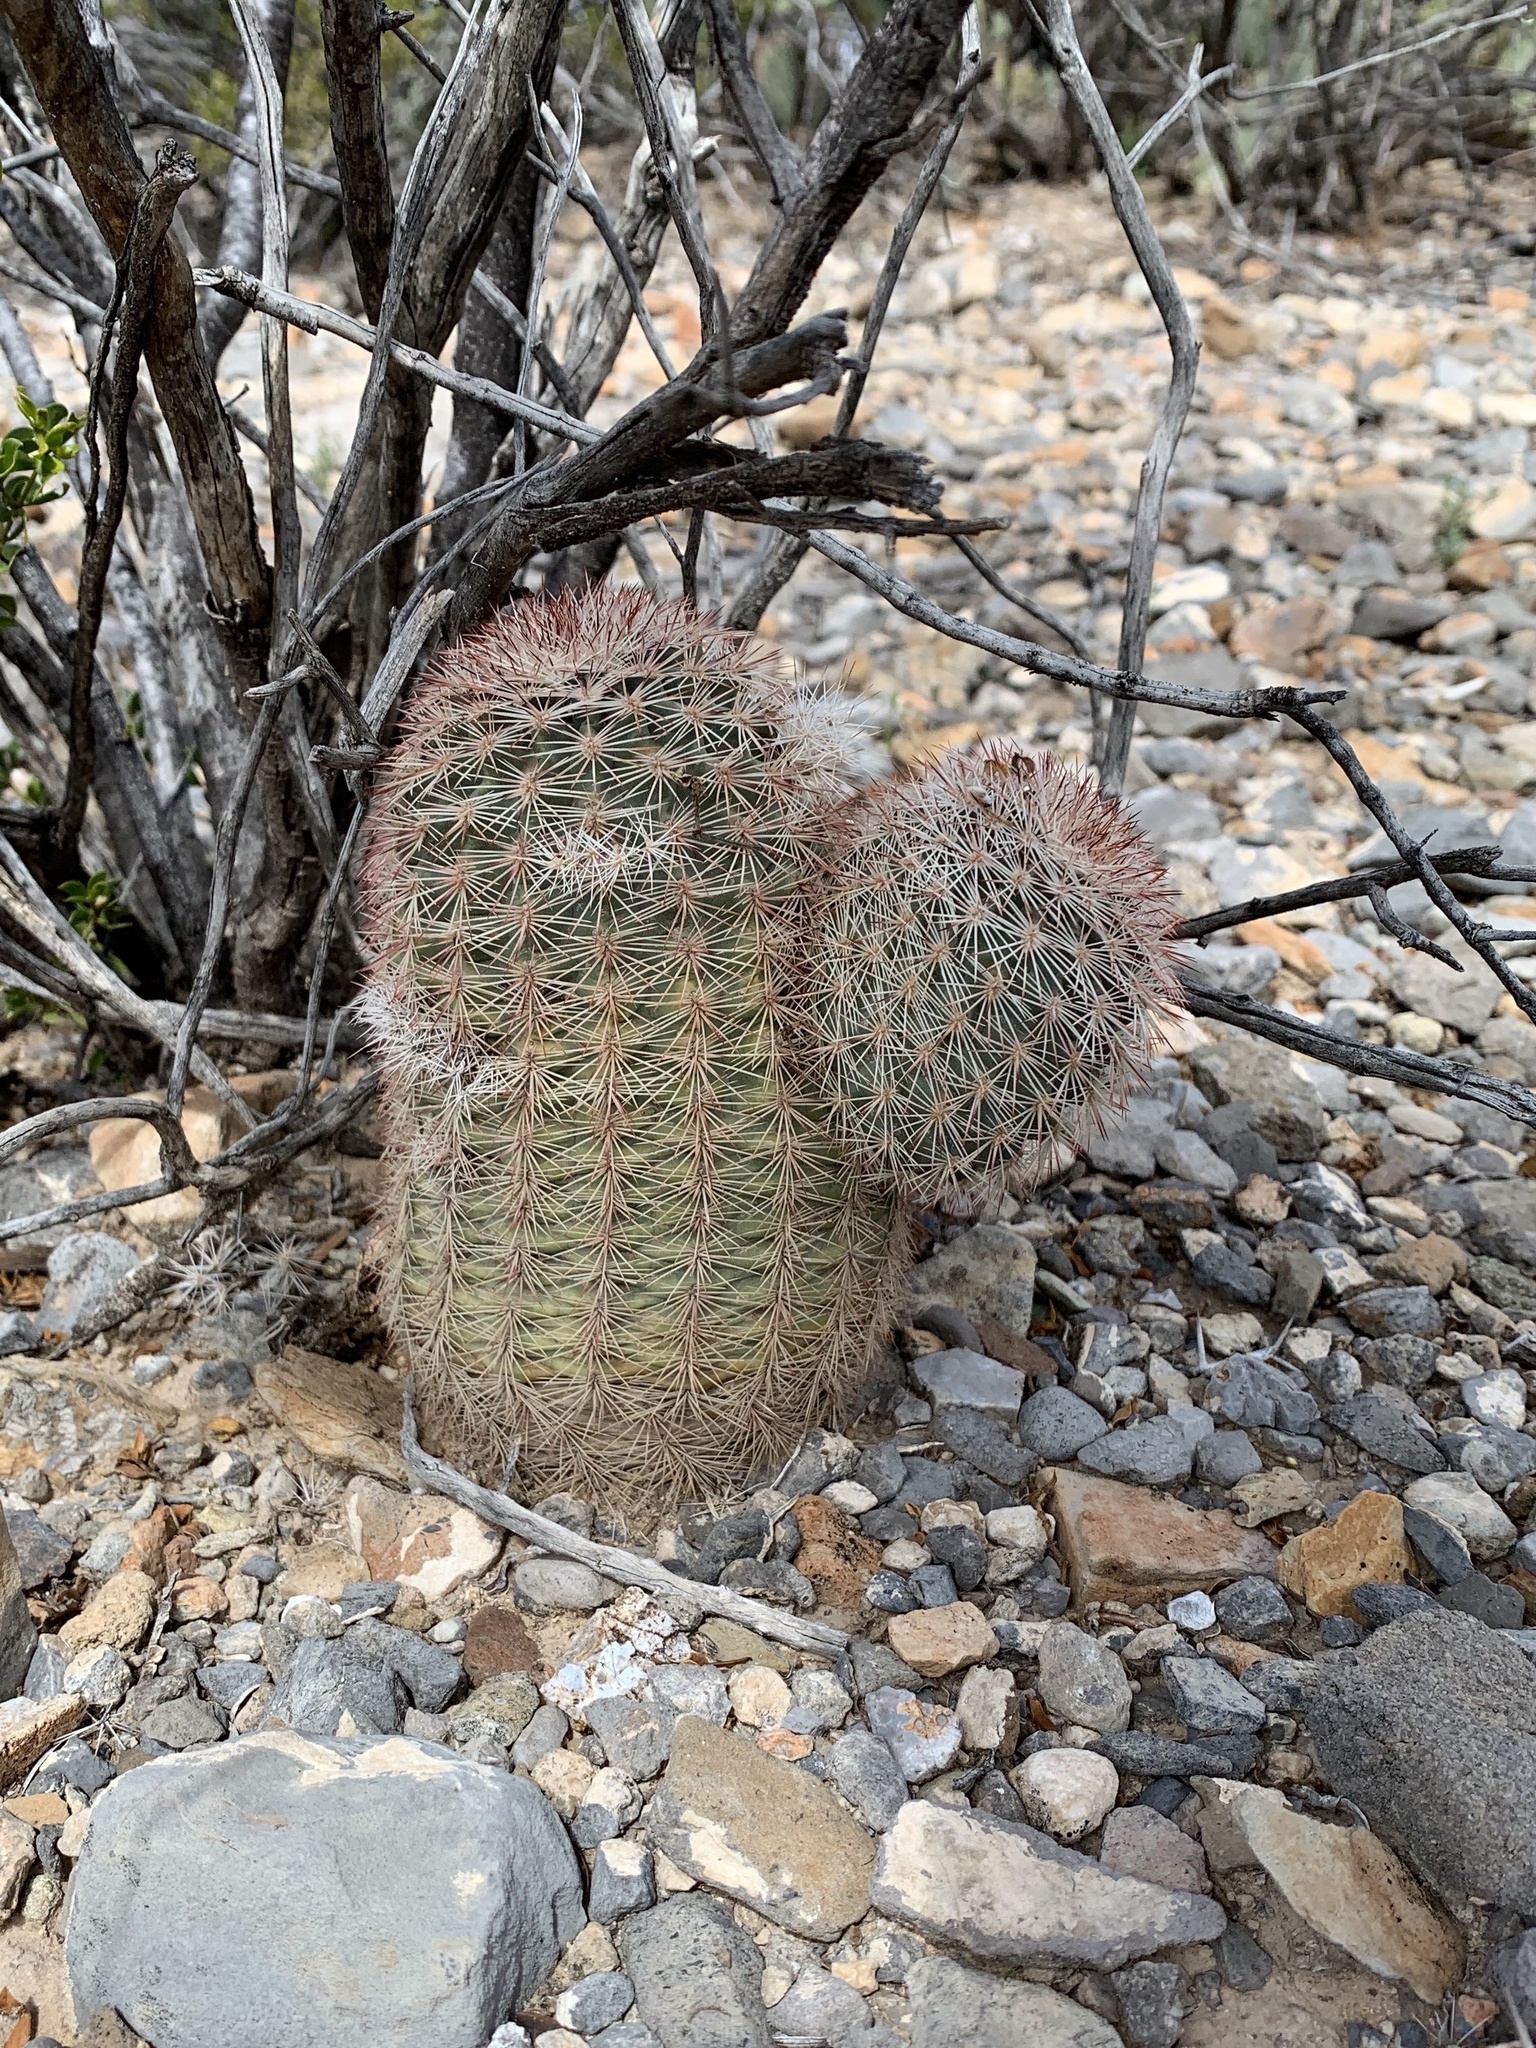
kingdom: Plantae
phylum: Tracheophyta
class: Magnoliopsida
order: Caryophyllales
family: Cactaceae
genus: Echinocereus
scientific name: Echinocereus dasyacanthus
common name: Spiny hedgehog cactus
